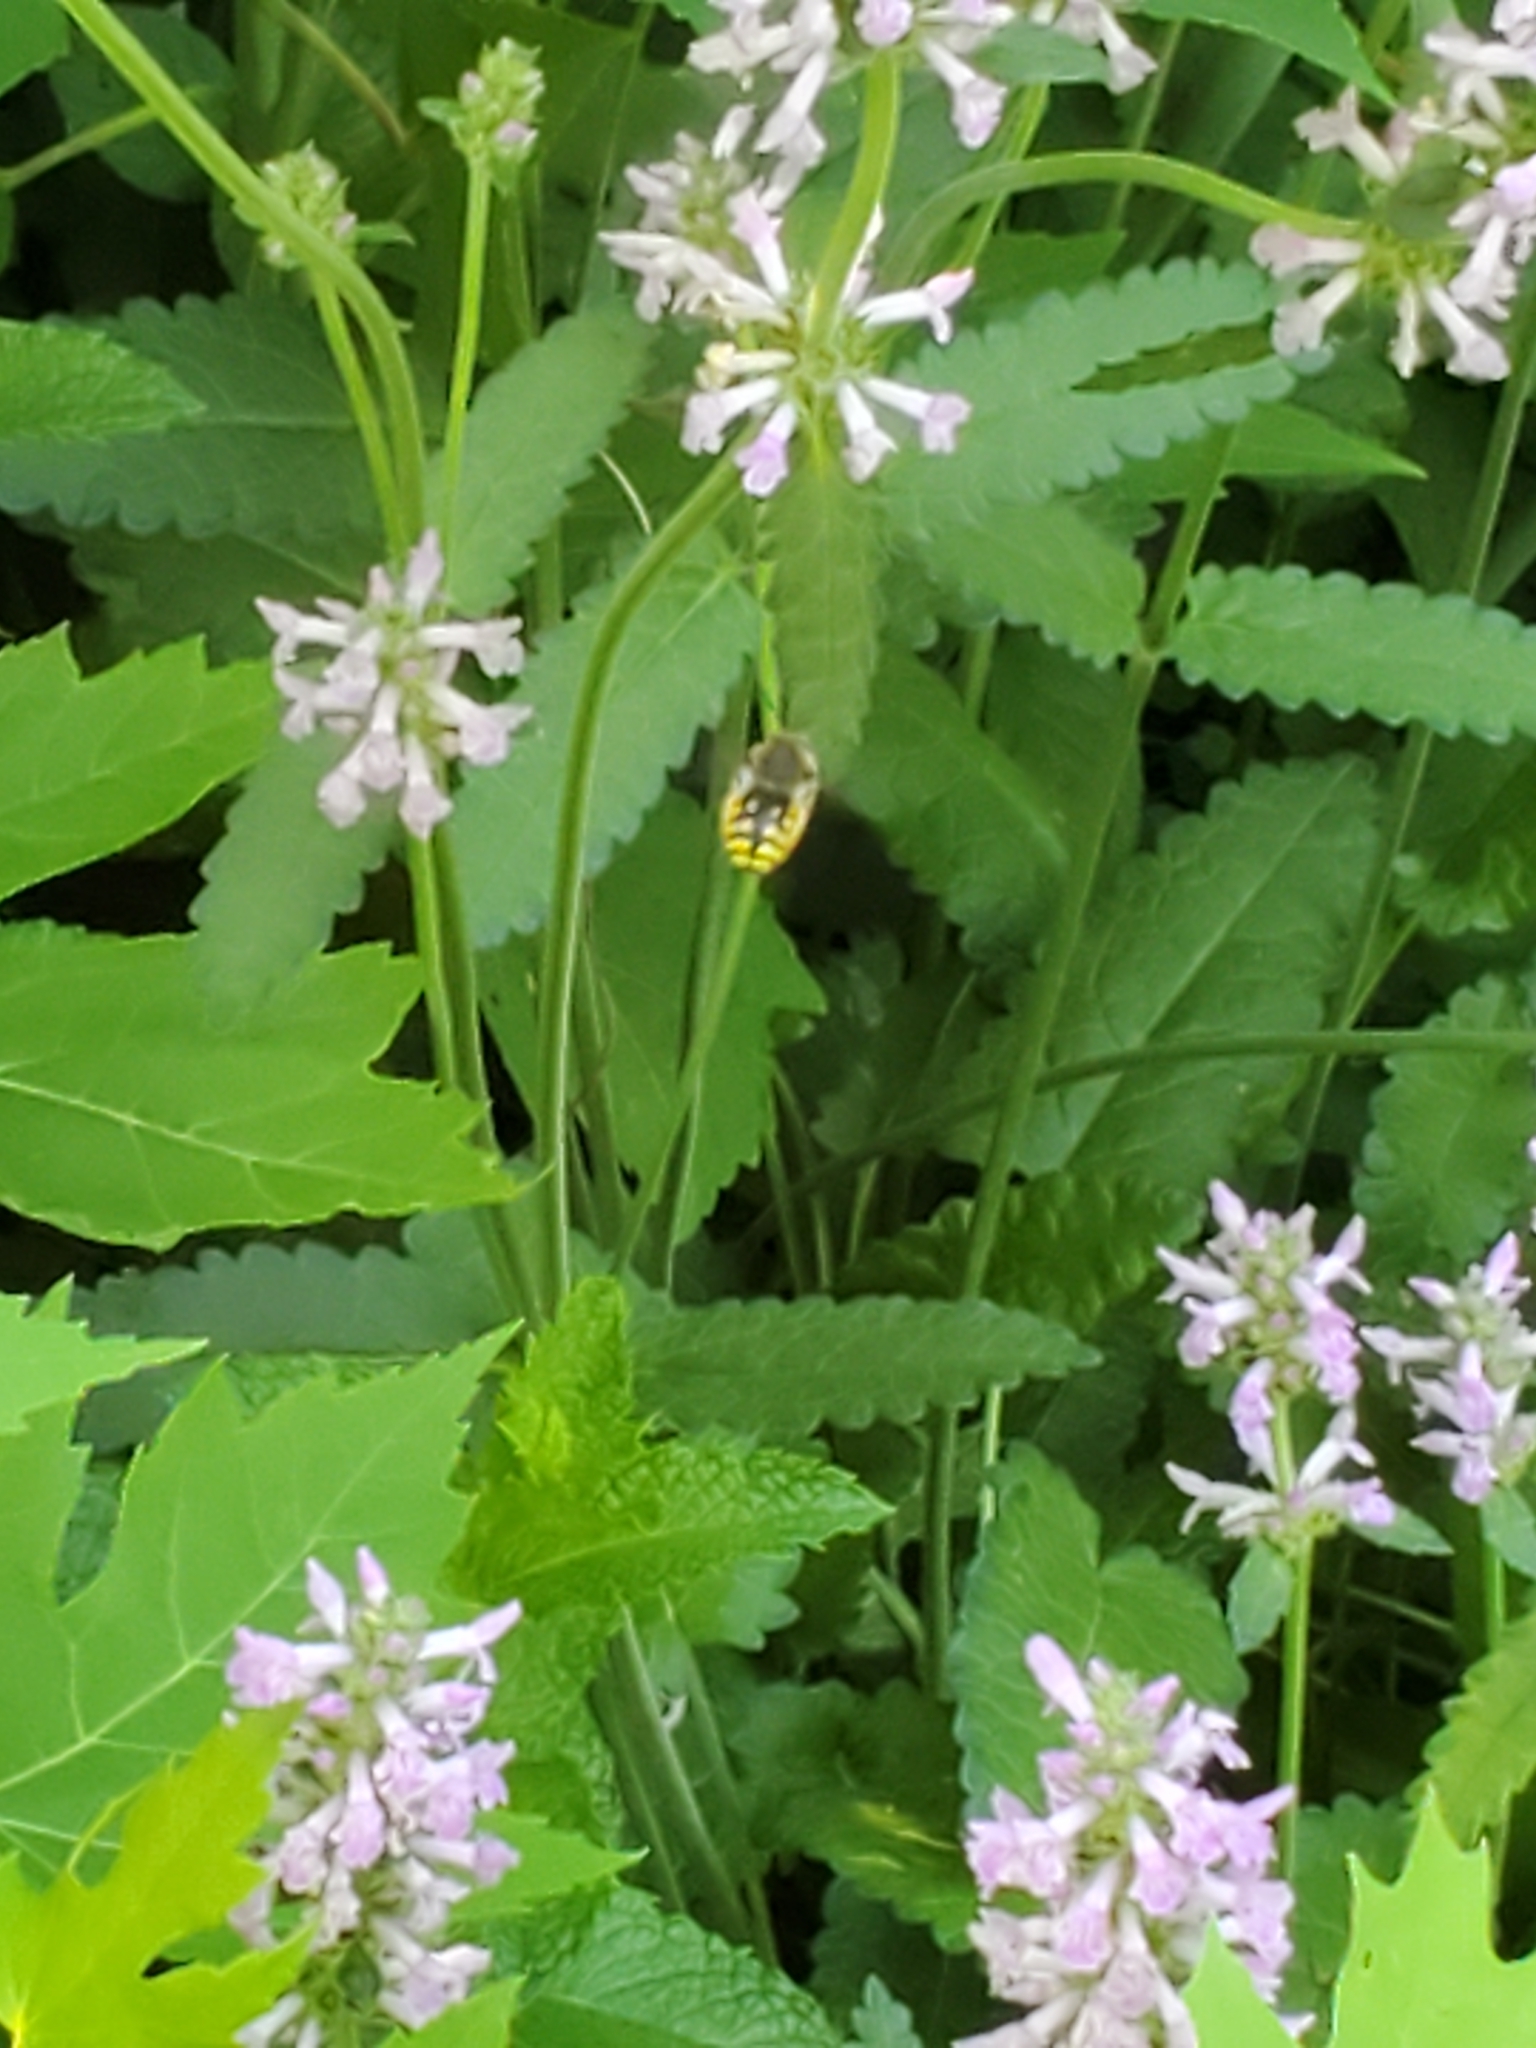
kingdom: Animalia
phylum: Arthropoda
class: Insecta
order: Hymenoptera
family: Megachilidae
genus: Anthidium
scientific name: Anthidium manicatum
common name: Wool carder bee
